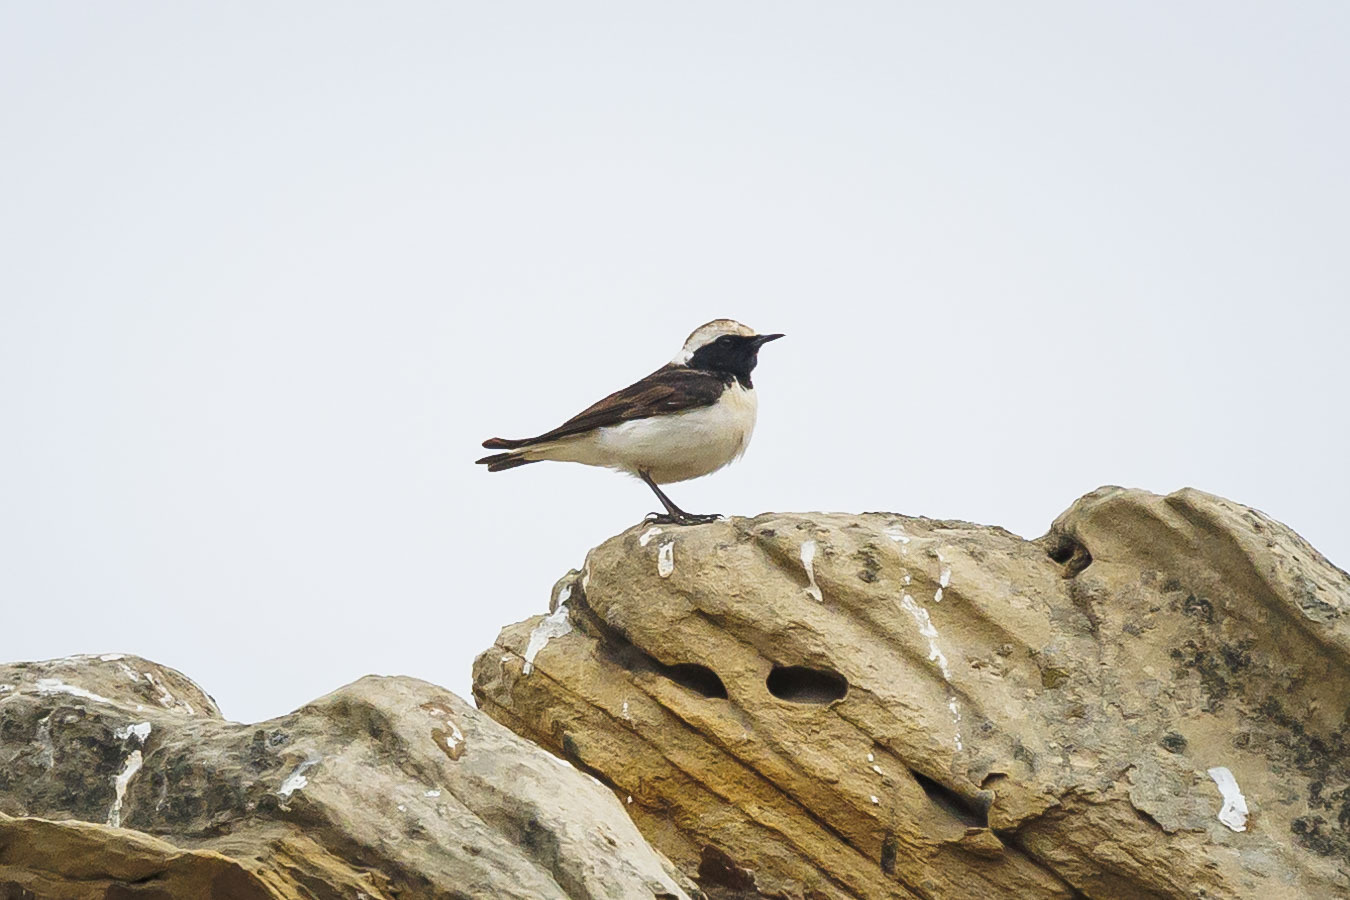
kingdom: Animalia
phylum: Chordata
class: Aves
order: Passeriformes
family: Muscicapidae
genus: Oenanthe
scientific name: Oenanthe pleschanka
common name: Pied wheatear
